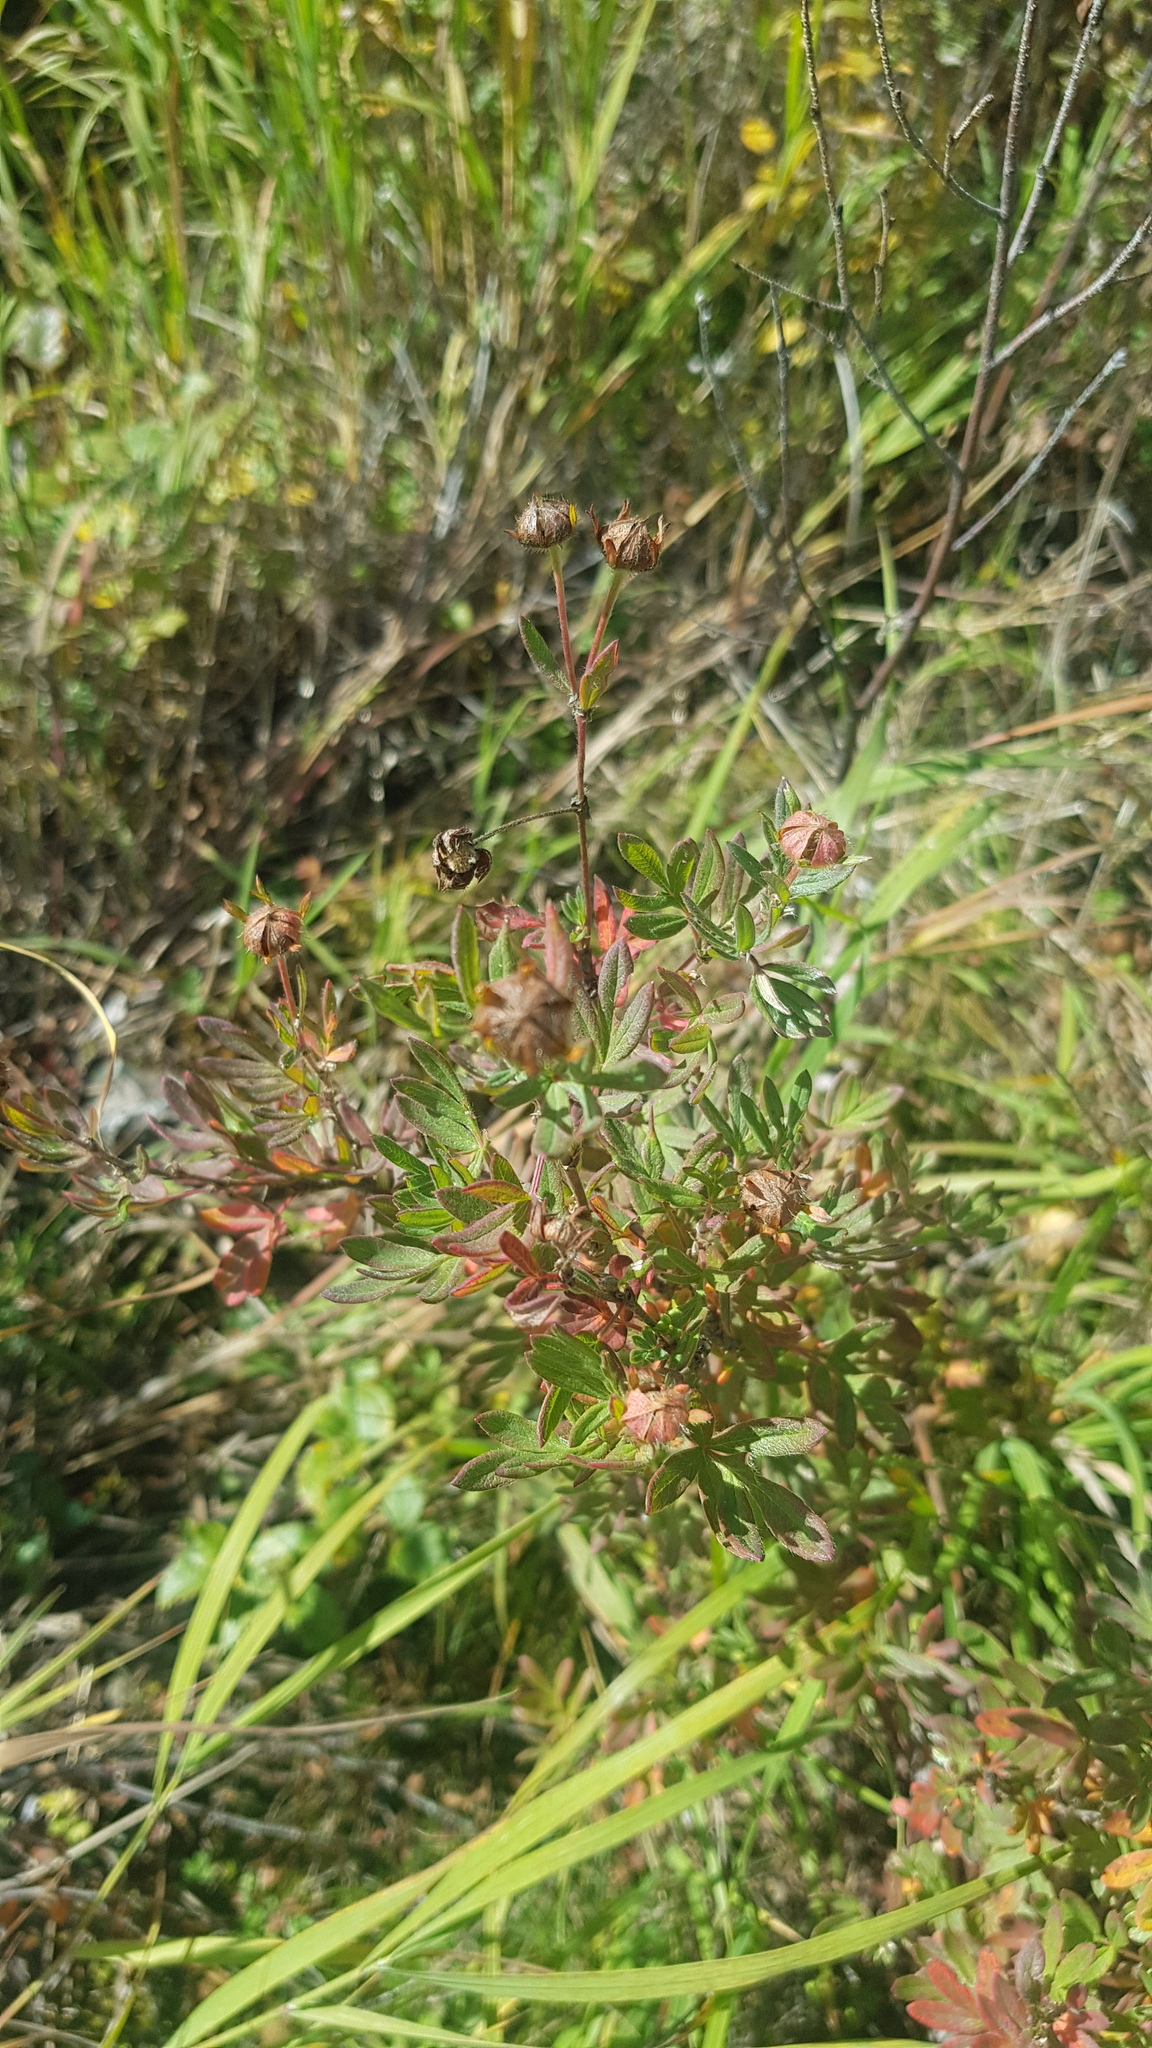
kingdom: Plantae
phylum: Tracheophyta
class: Magnoliopsida
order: Rosales
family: Rosaceae
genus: Dasiphora
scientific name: Dasiphora fruticosa
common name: Shrubby cinquefoil
